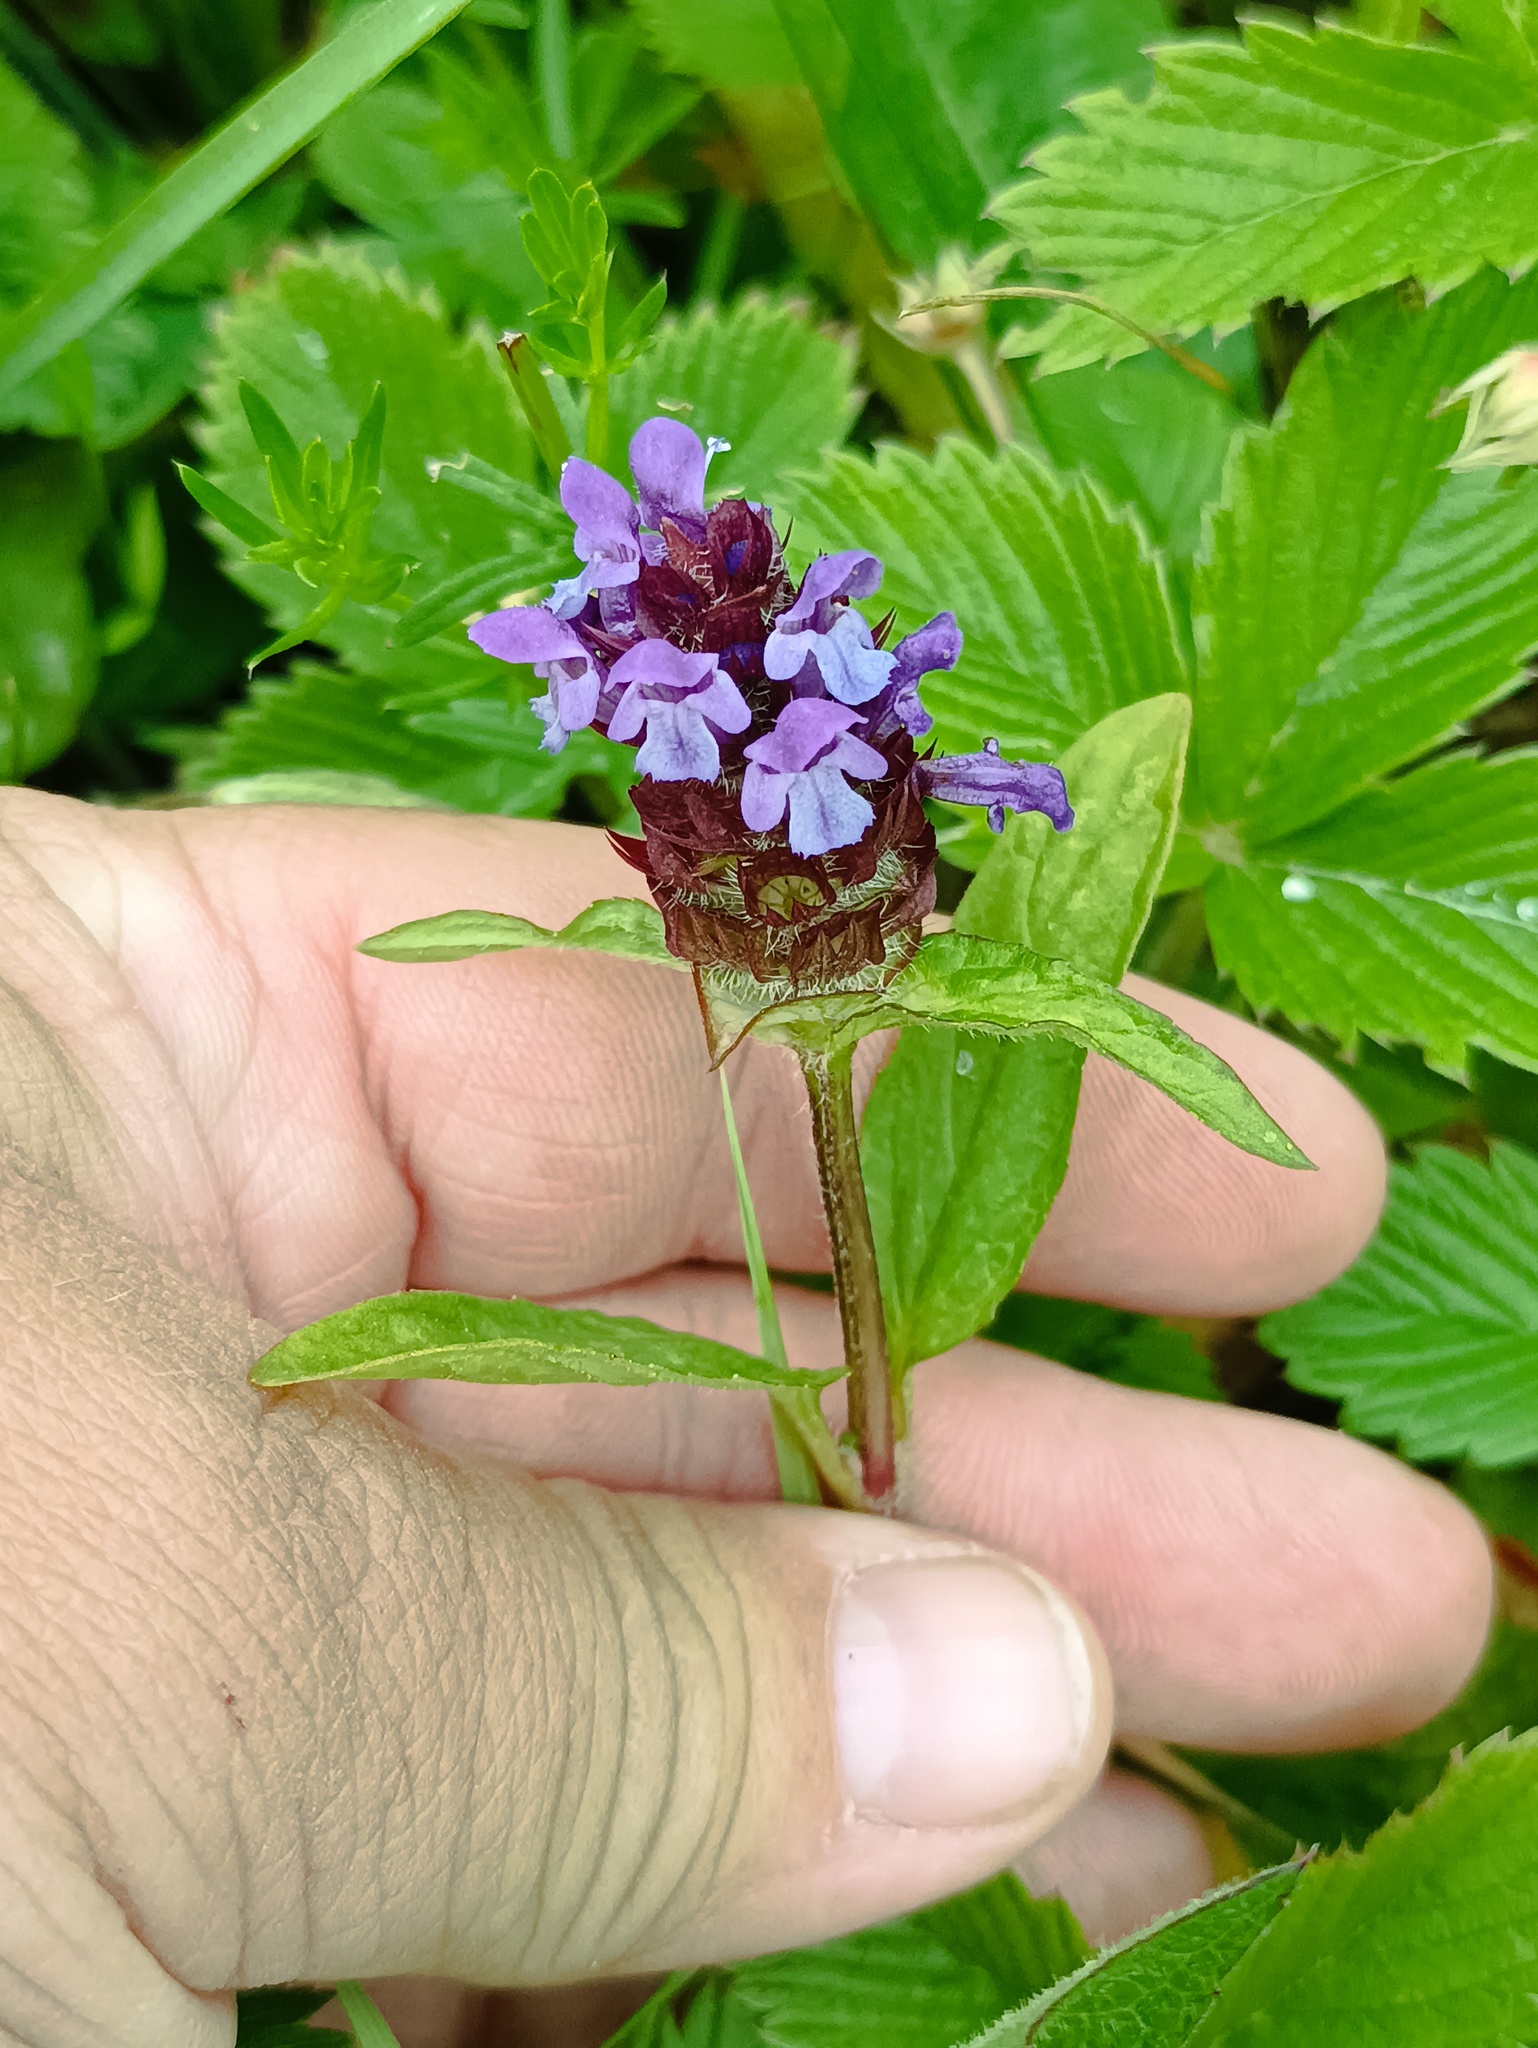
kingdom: Plantae
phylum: Tracheophyta
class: Magnoliopsida
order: Lamiales
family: Lamiaceae
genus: Prunella
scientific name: Prunella vulgaris
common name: Heal-all
